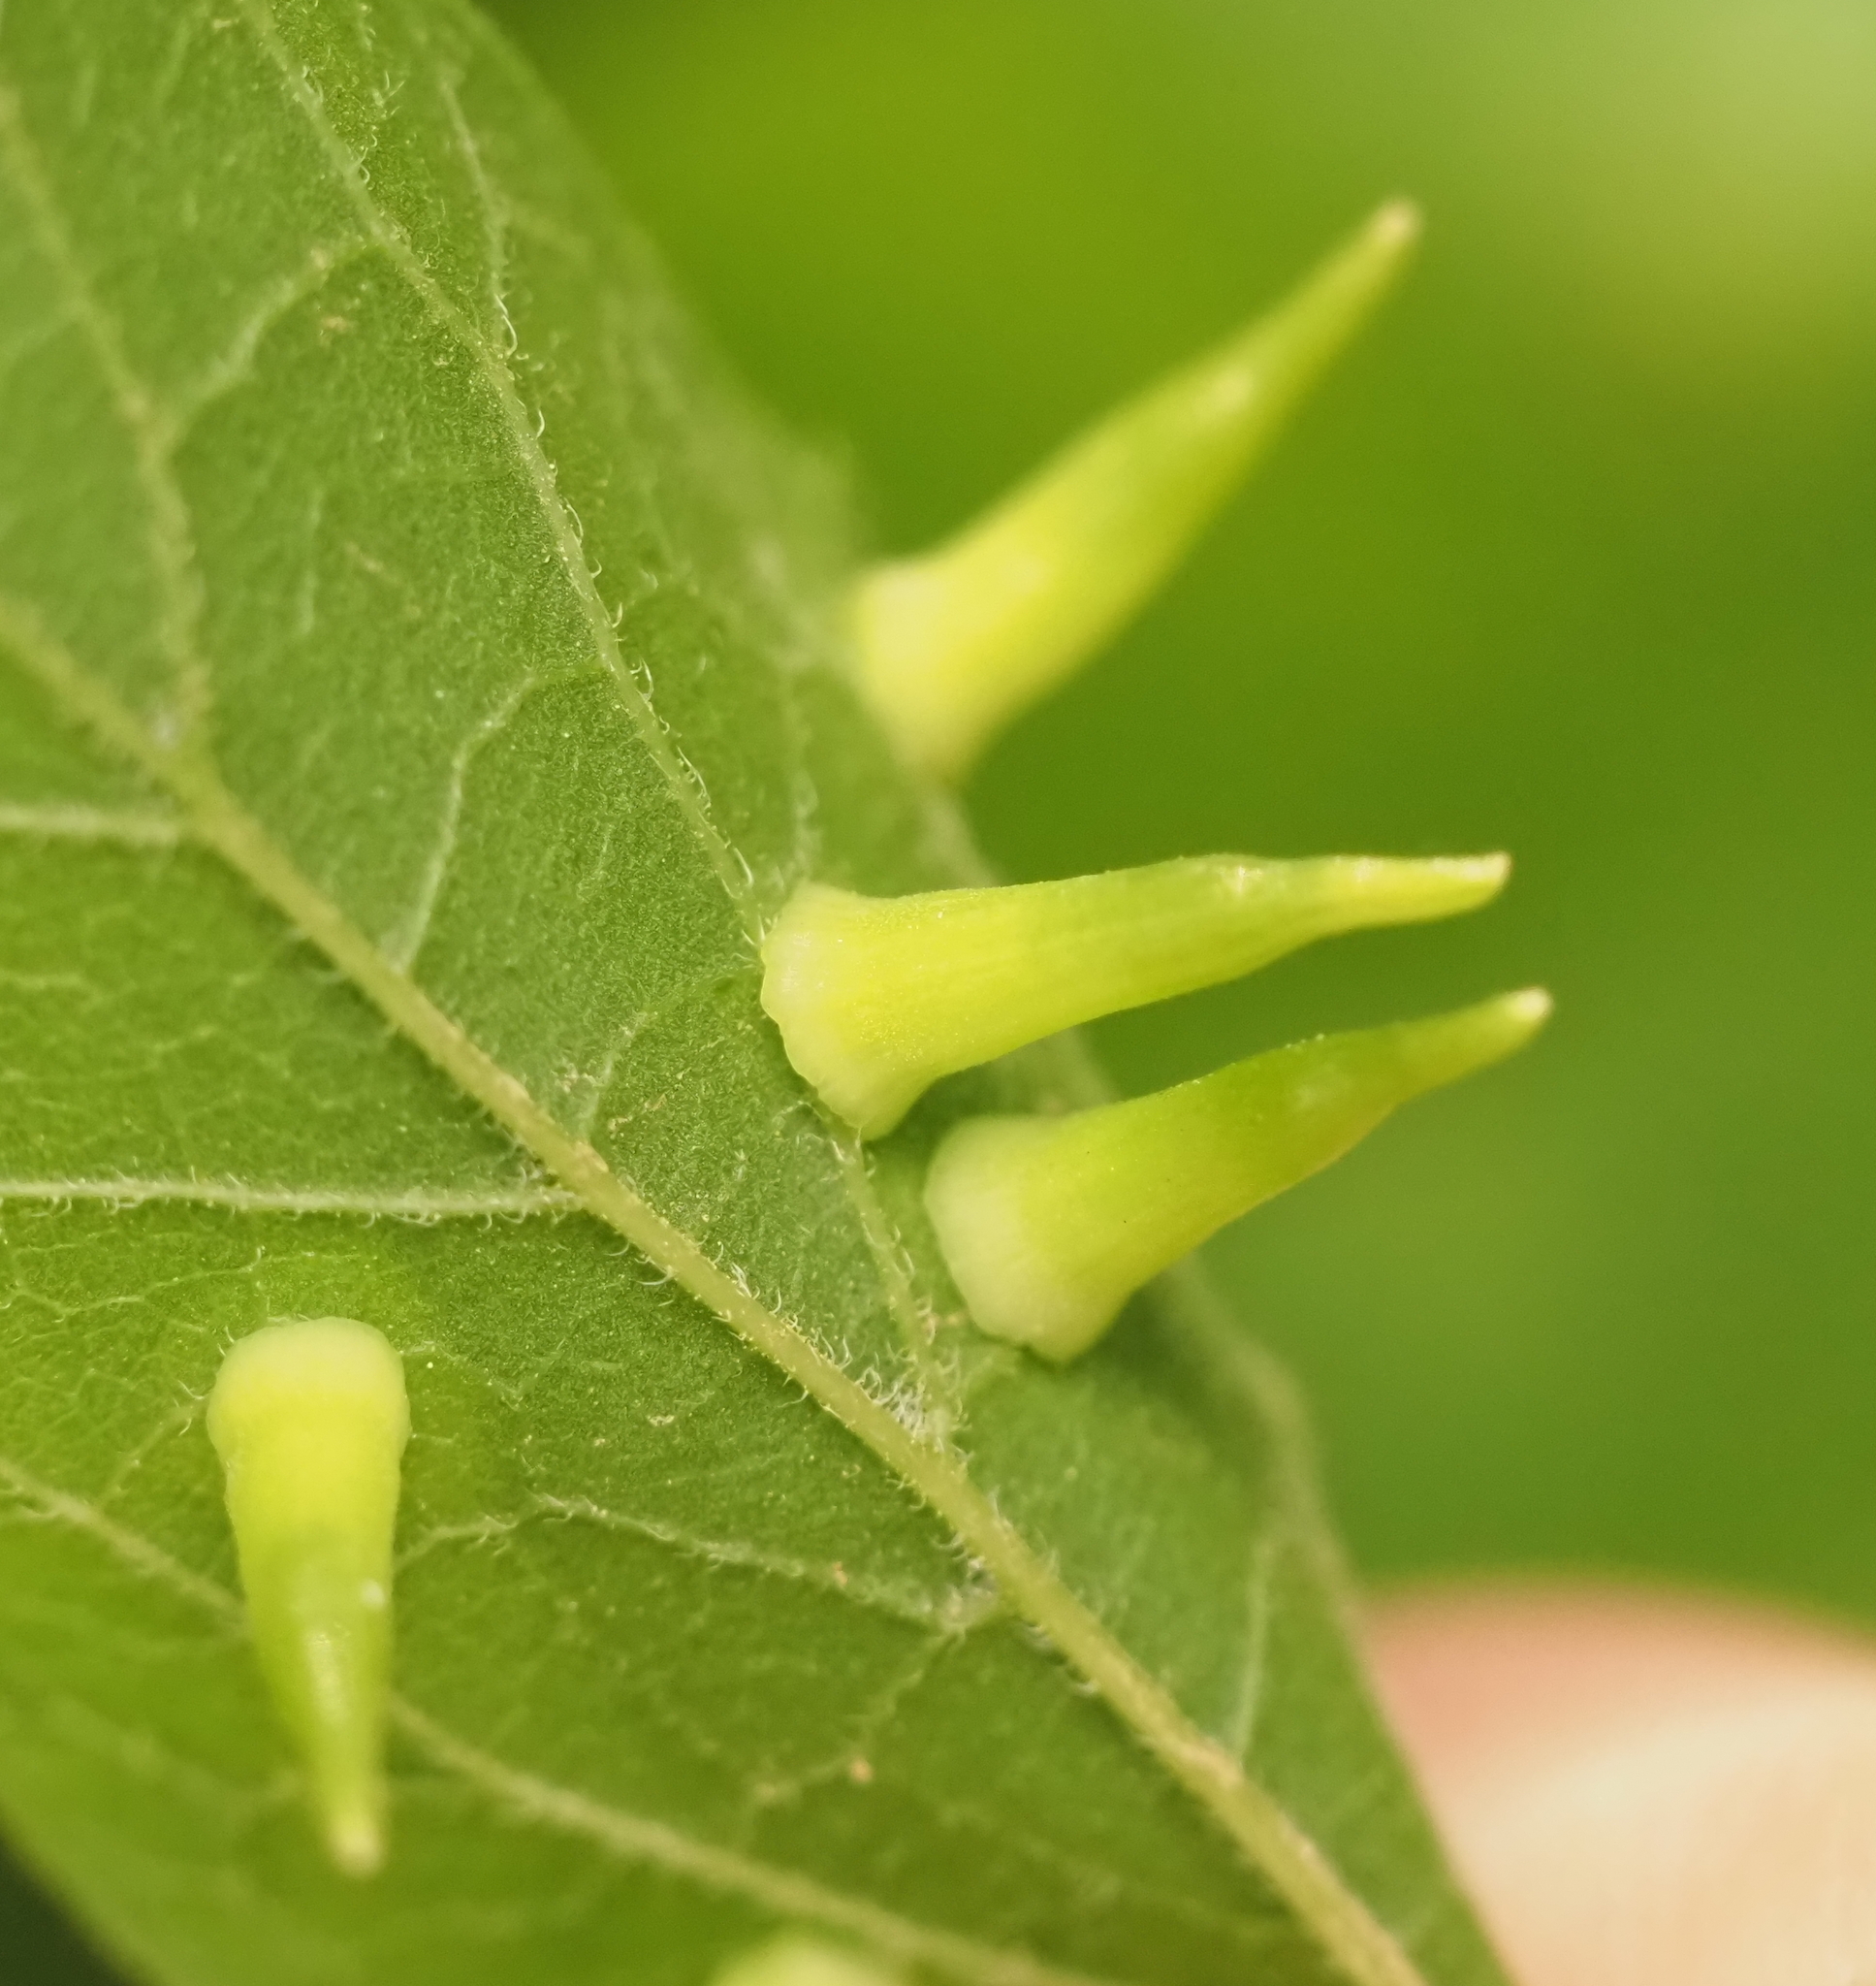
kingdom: Animalia
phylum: Arthropoda
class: Insecta
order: Diptera
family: Cecidomyiidae
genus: Celticecis
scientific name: Celticecis subulata
